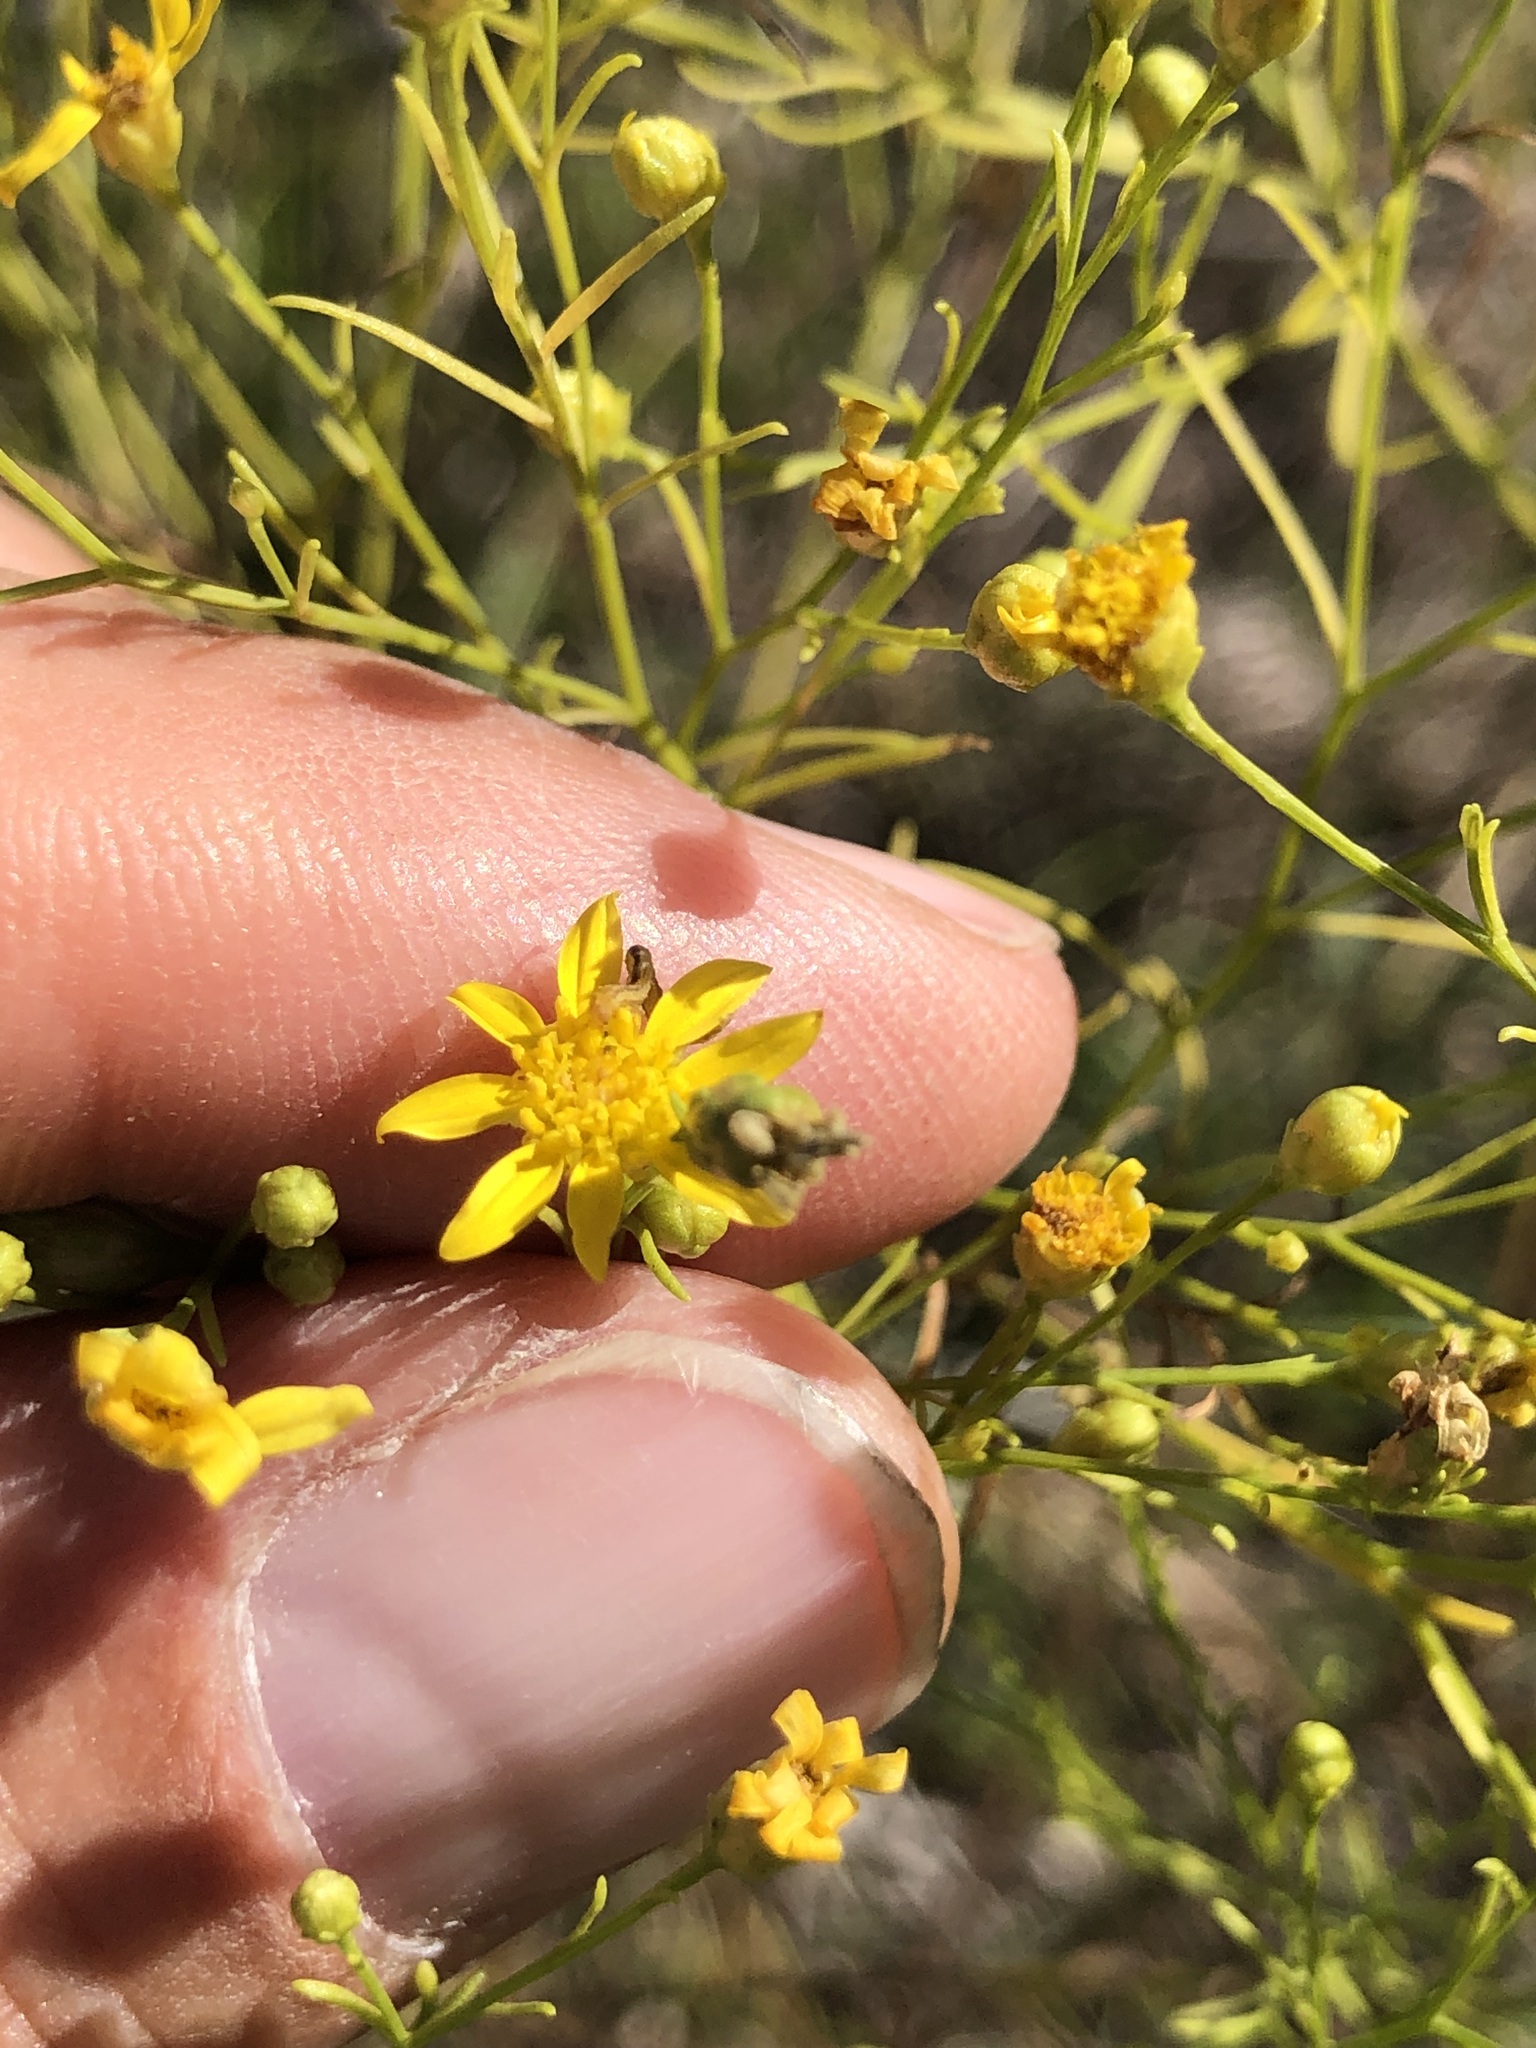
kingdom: Plantae
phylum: Tracheophyta
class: Magnoliopsida
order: Asterales
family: Asteraceae
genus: Amphiachyris
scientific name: Amphiachyris dracunculoides
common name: Broomweed
